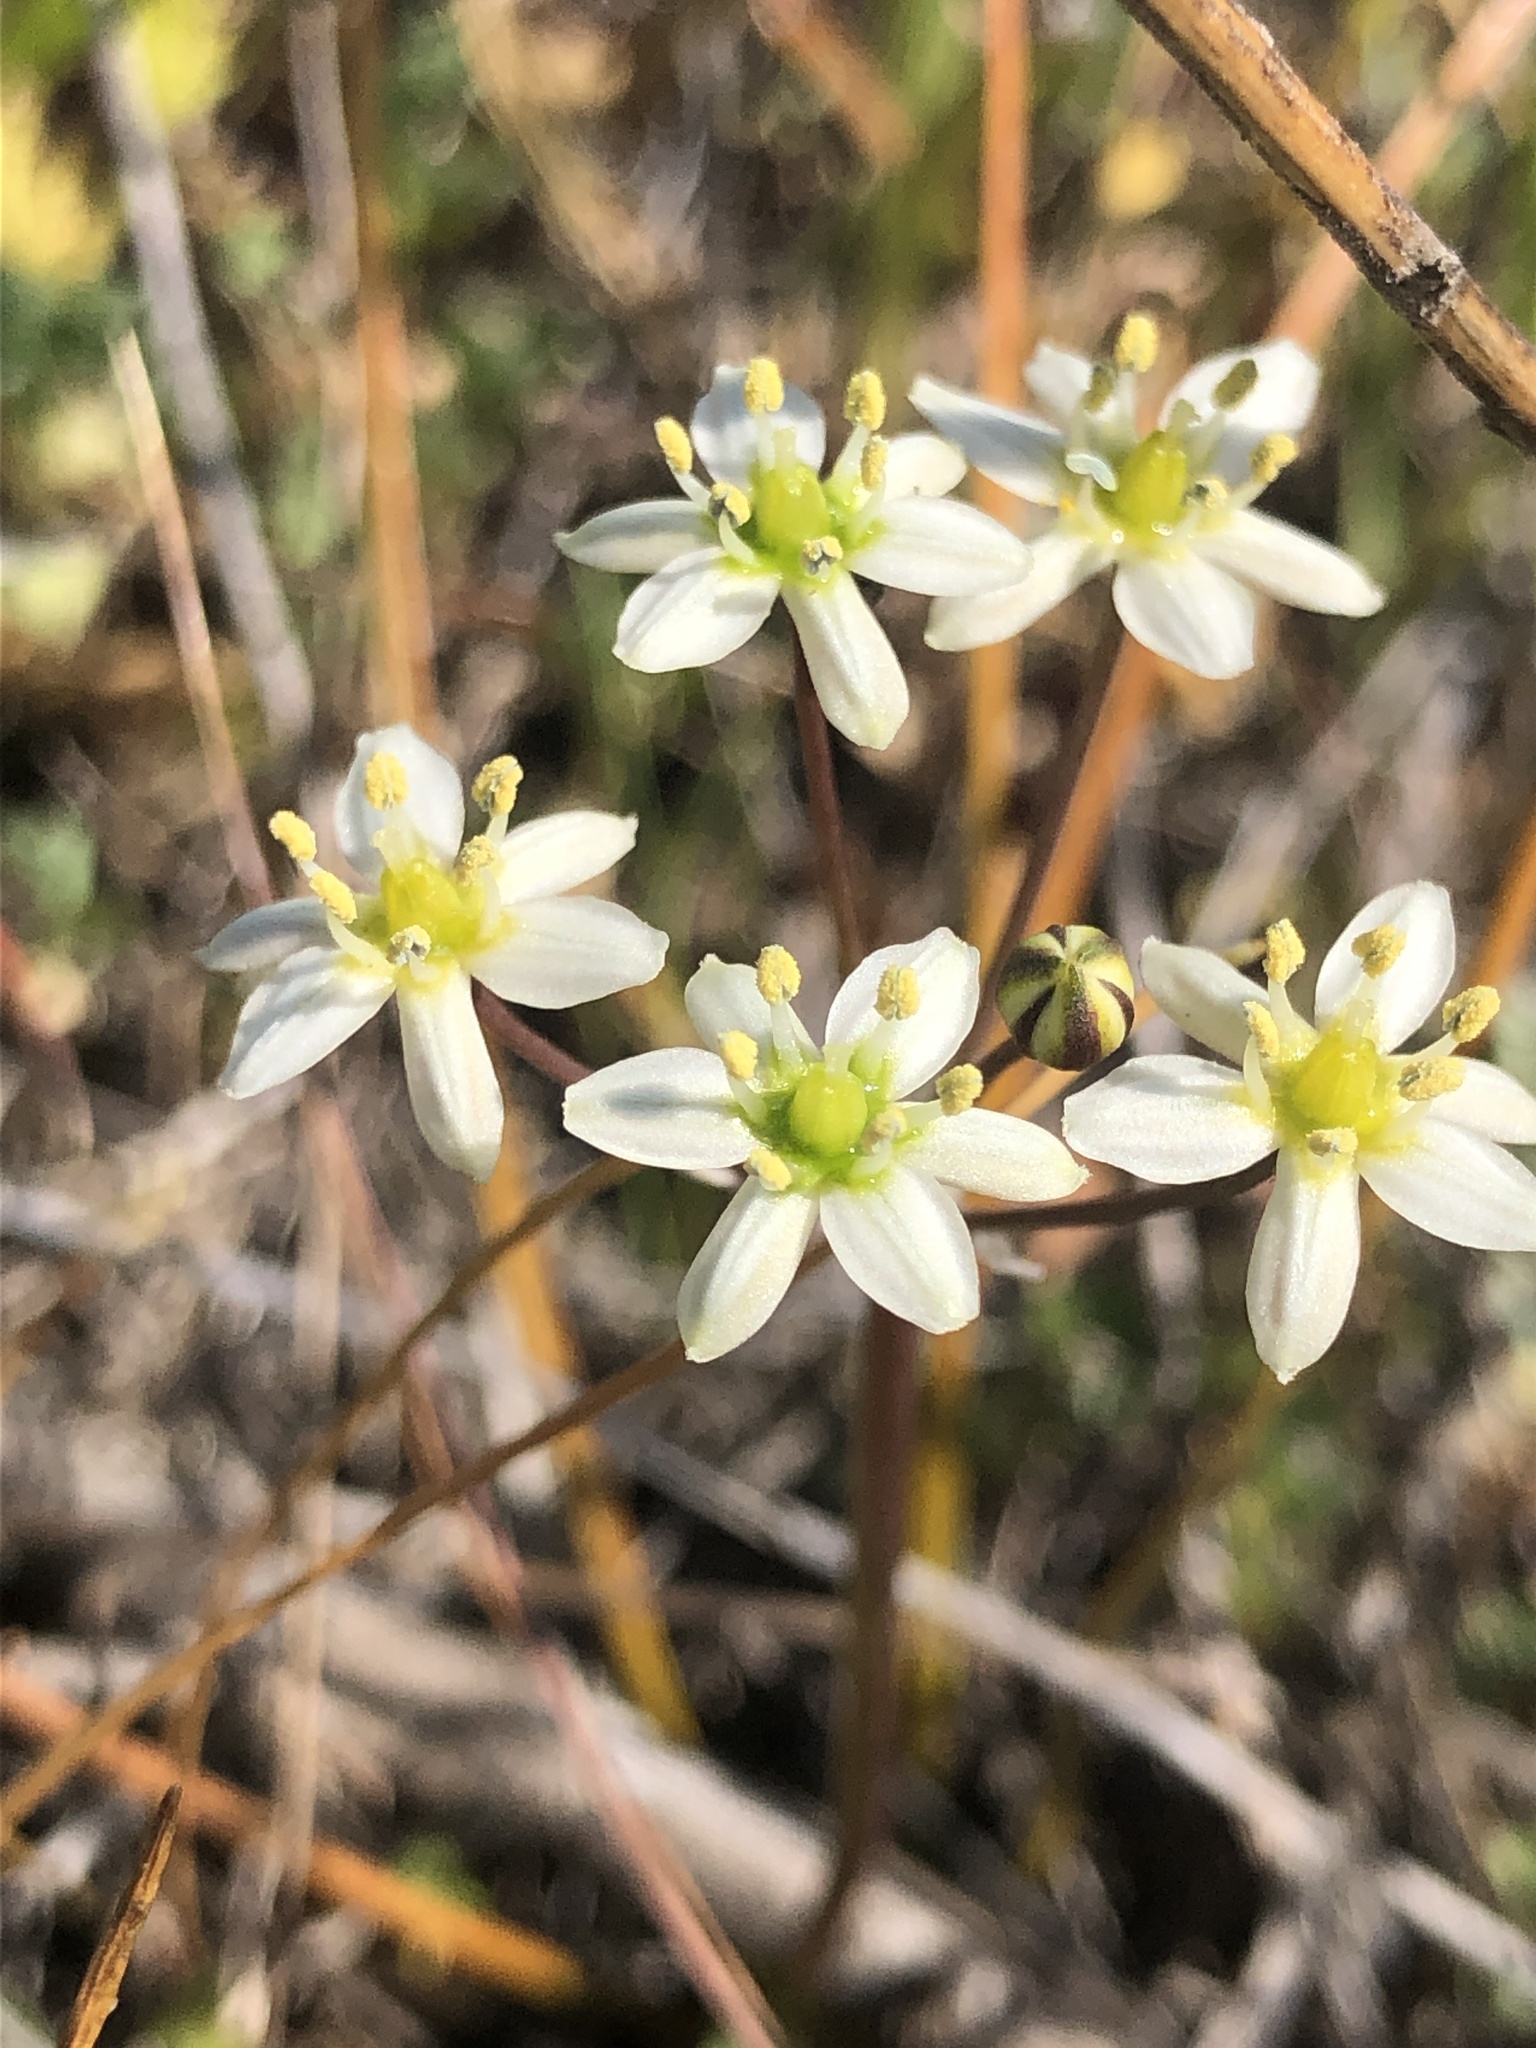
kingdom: Plantae
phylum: Tracheophyta
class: Liliopsida
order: Asparagales
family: Asparagaceae
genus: Muilla
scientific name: Muilla maritima
